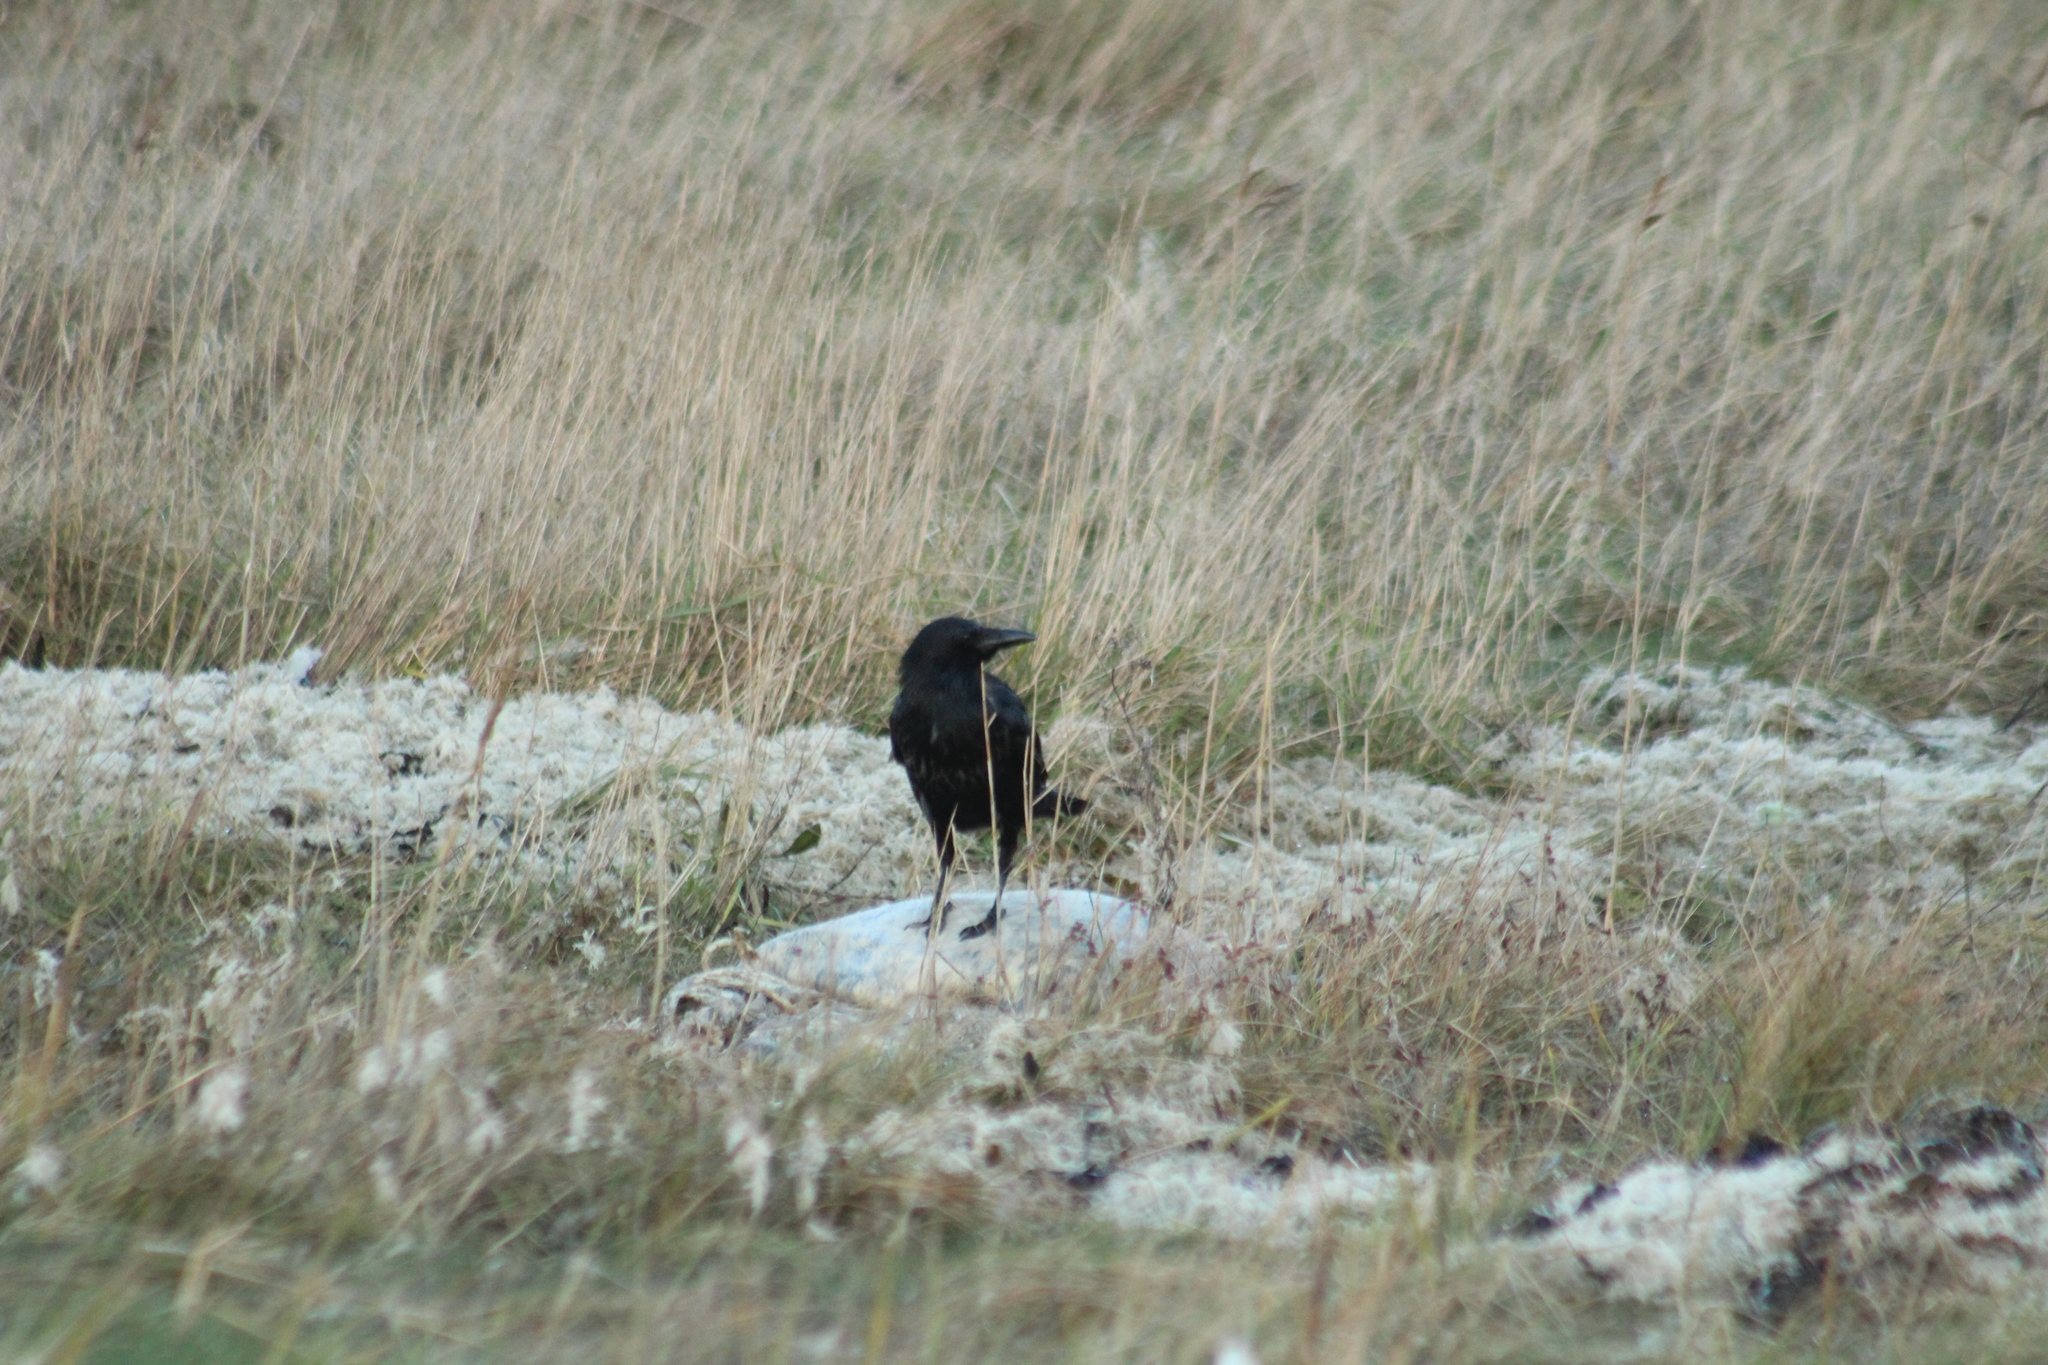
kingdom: Animalia
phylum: Chordata
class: Aves
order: Passeriformes
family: Corvidae
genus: Corvus
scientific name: Corvus corone
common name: Carrion crow
